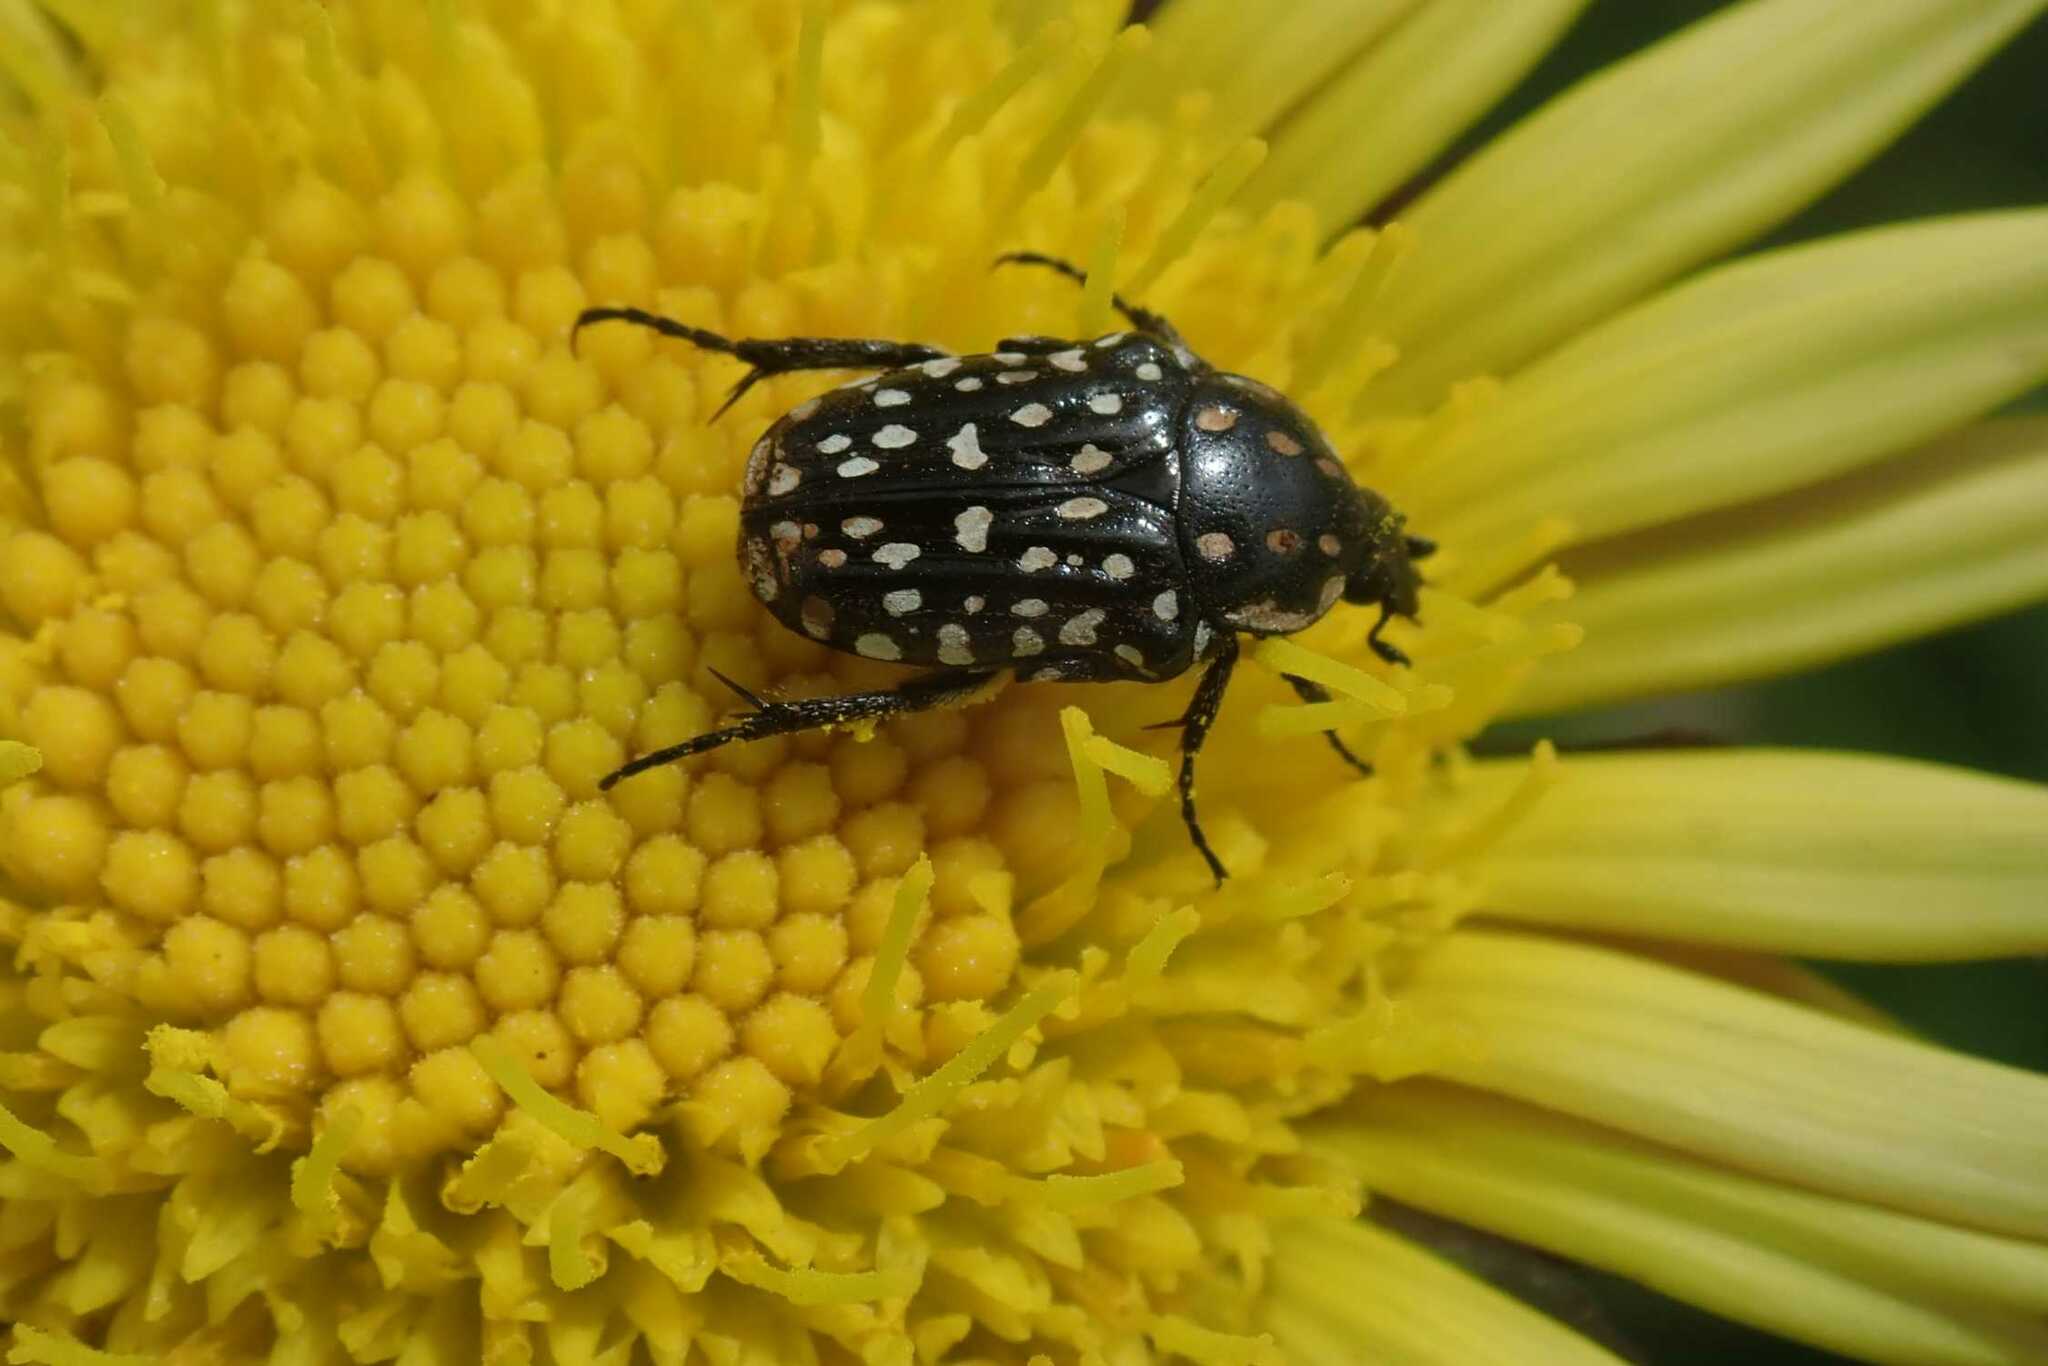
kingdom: Animalia
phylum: Arthropoda
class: Insecta
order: Coleoptera
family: Scarabaeidae
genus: Cyrtothyrea
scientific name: Cyrtothyrea testaceoguttata
